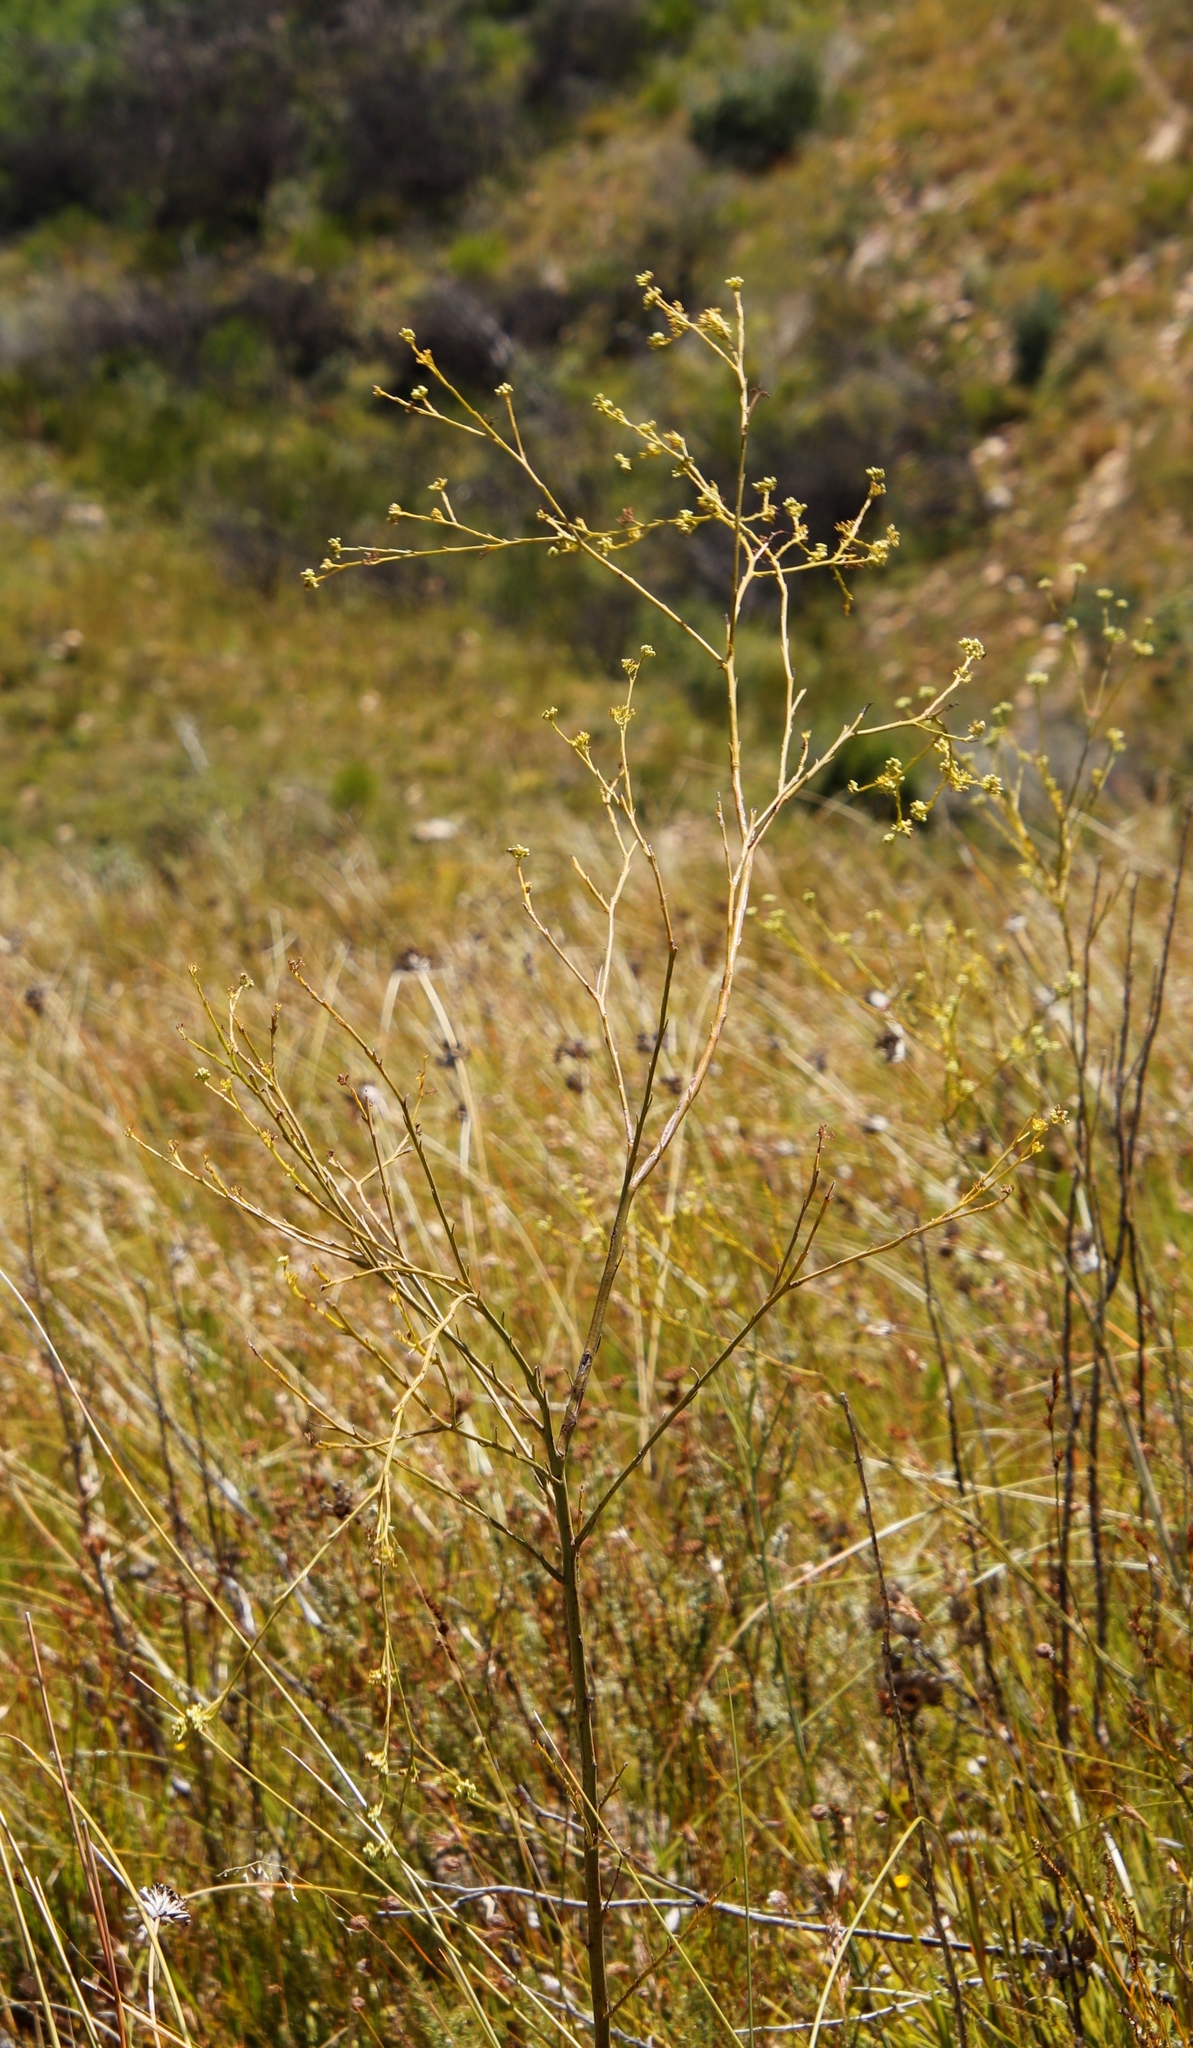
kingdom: Plantae
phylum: Tracheophyta
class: Magnoliopsida
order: Santalales
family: Thesiaceae
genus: Thesium
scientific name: Thesium strictum
